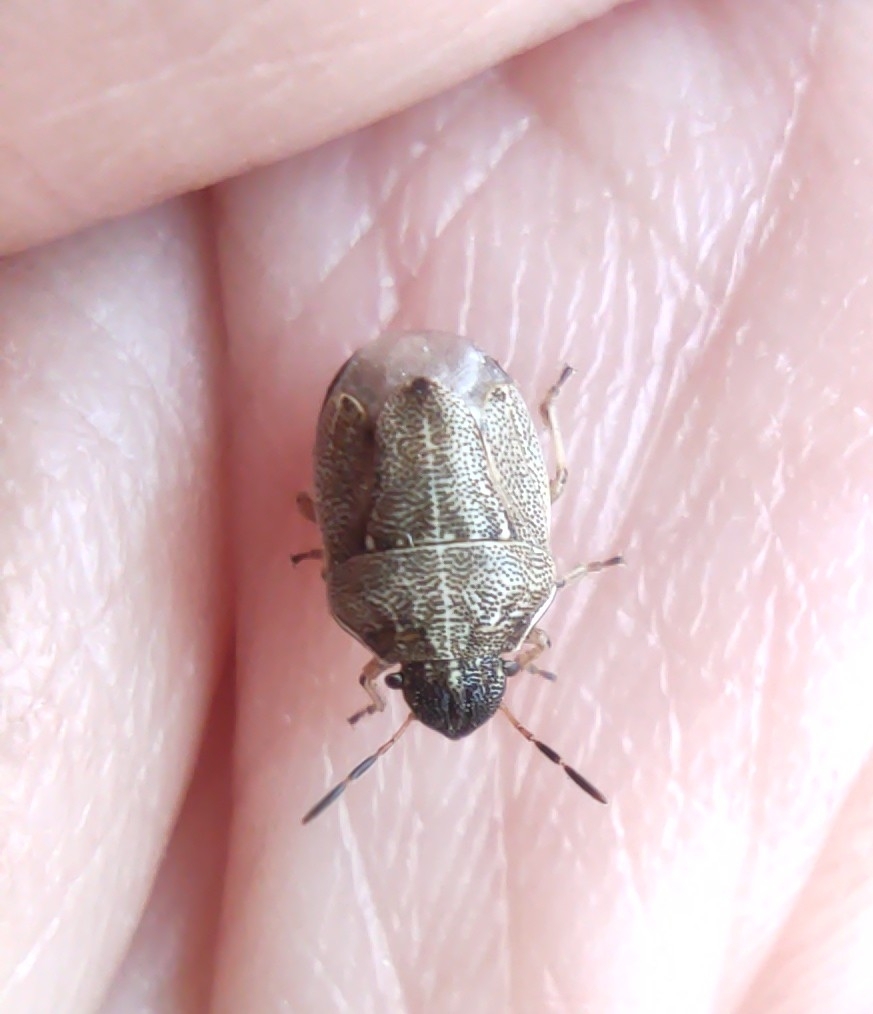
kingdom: Animalia
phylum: Arthropoda
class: Insecta
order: Hemiptera
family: Pentatomidae
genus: Neottiglossa
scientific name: Neottiglossa pusilla
